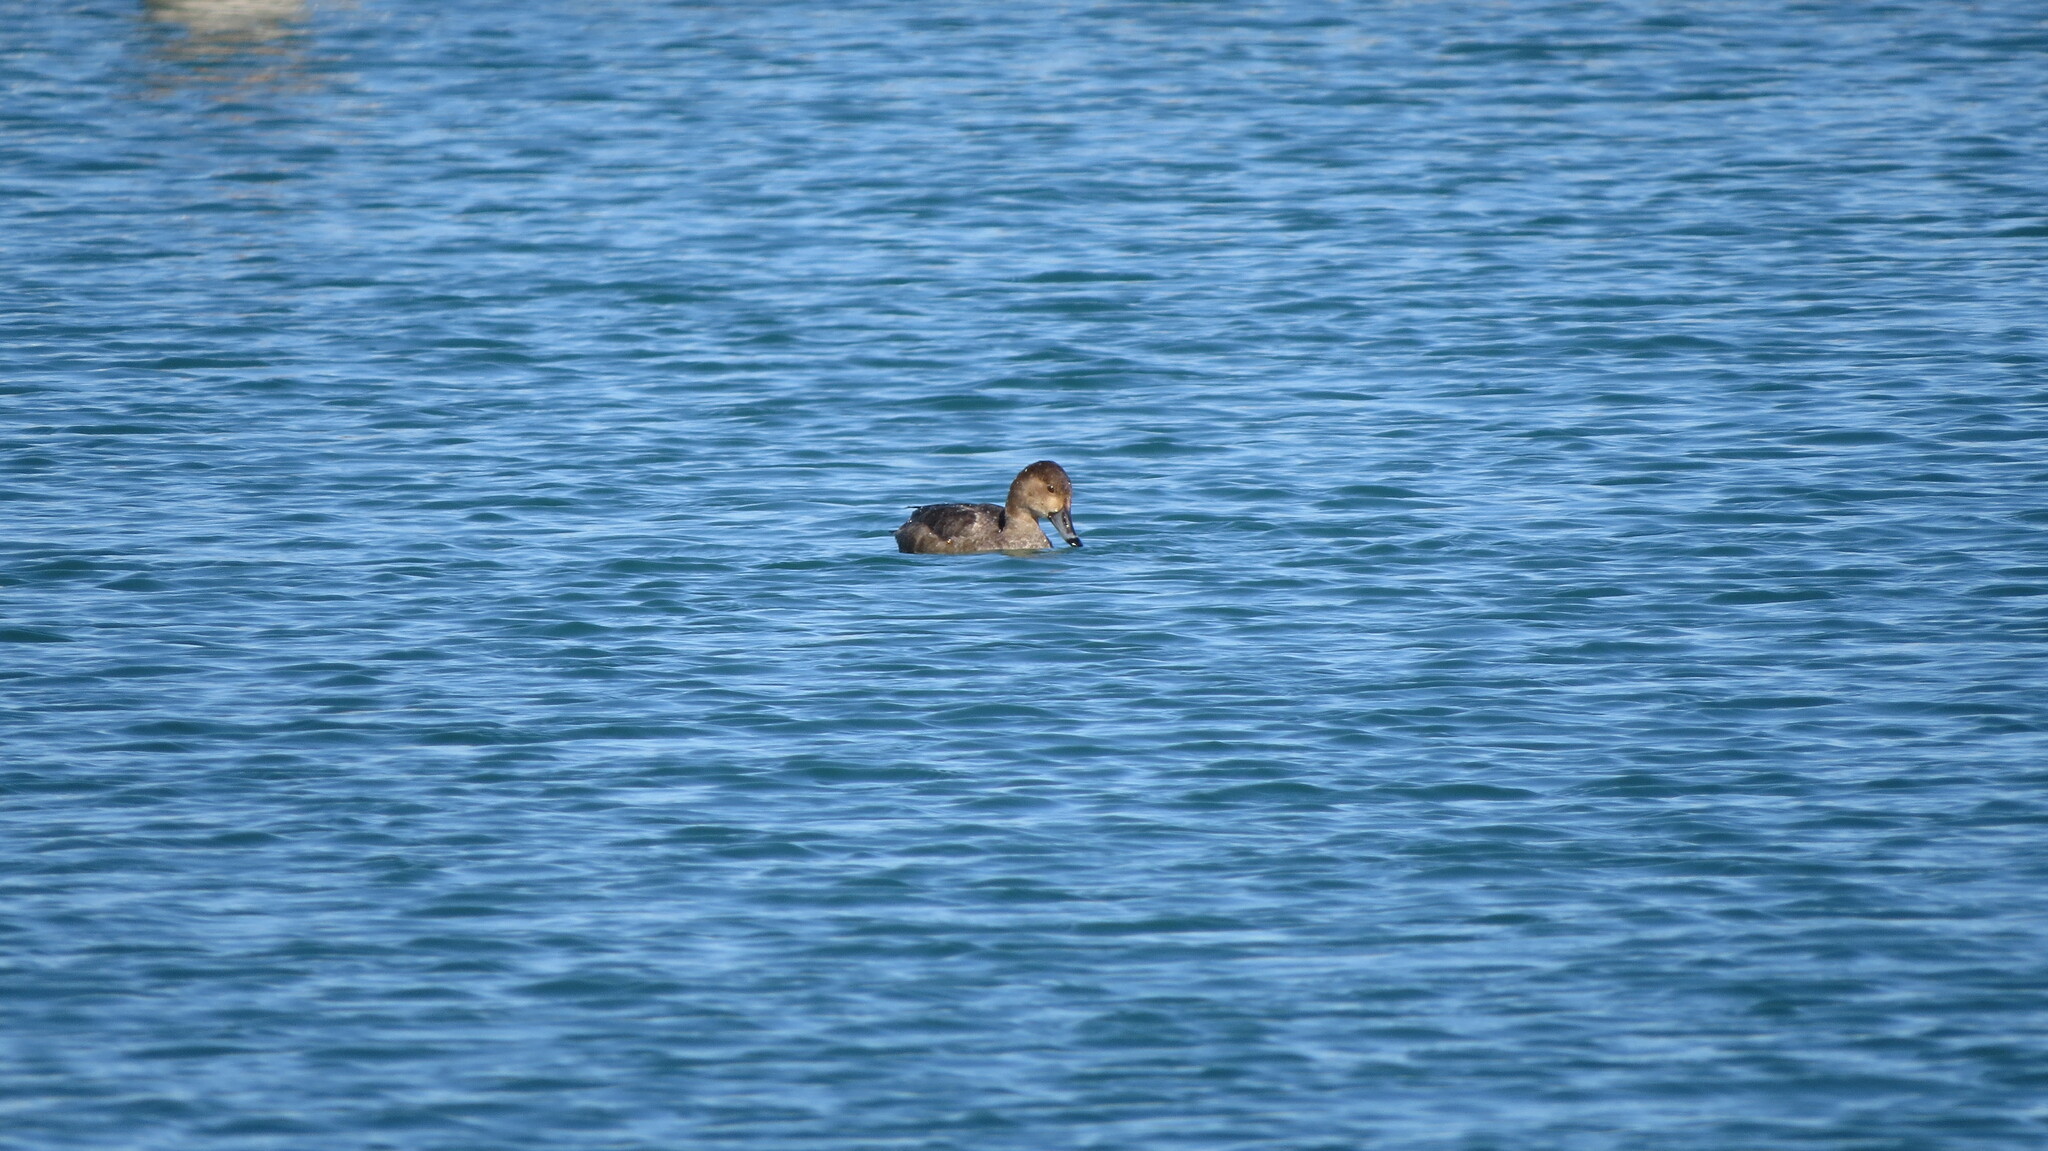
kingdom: Animalia
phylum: Chordata
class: Aves
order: Anseriformes
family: Anatidae
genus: Aythya
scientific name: Aythya americana
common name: Redhead
